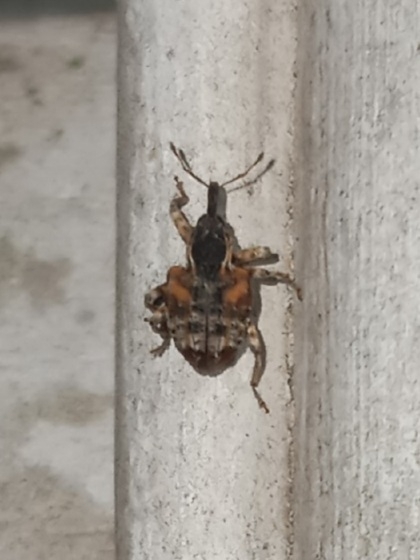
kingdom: Animalia
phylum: Arthropoda
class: Insecta
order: Coleoptera
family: Curculionidae
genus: Conotrachelus
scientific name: Conotrachelus anaglypticus
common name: Cambium curculio
